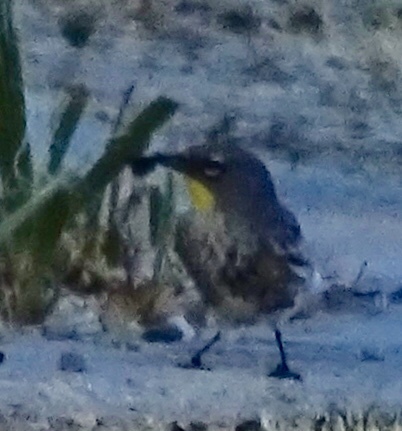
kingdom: Animalia
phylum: Chordata
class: Aves
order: Passeriformes
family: Parulidae
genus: Setophaga
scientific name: Setophaga auduboni
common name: Audubon's warbler
